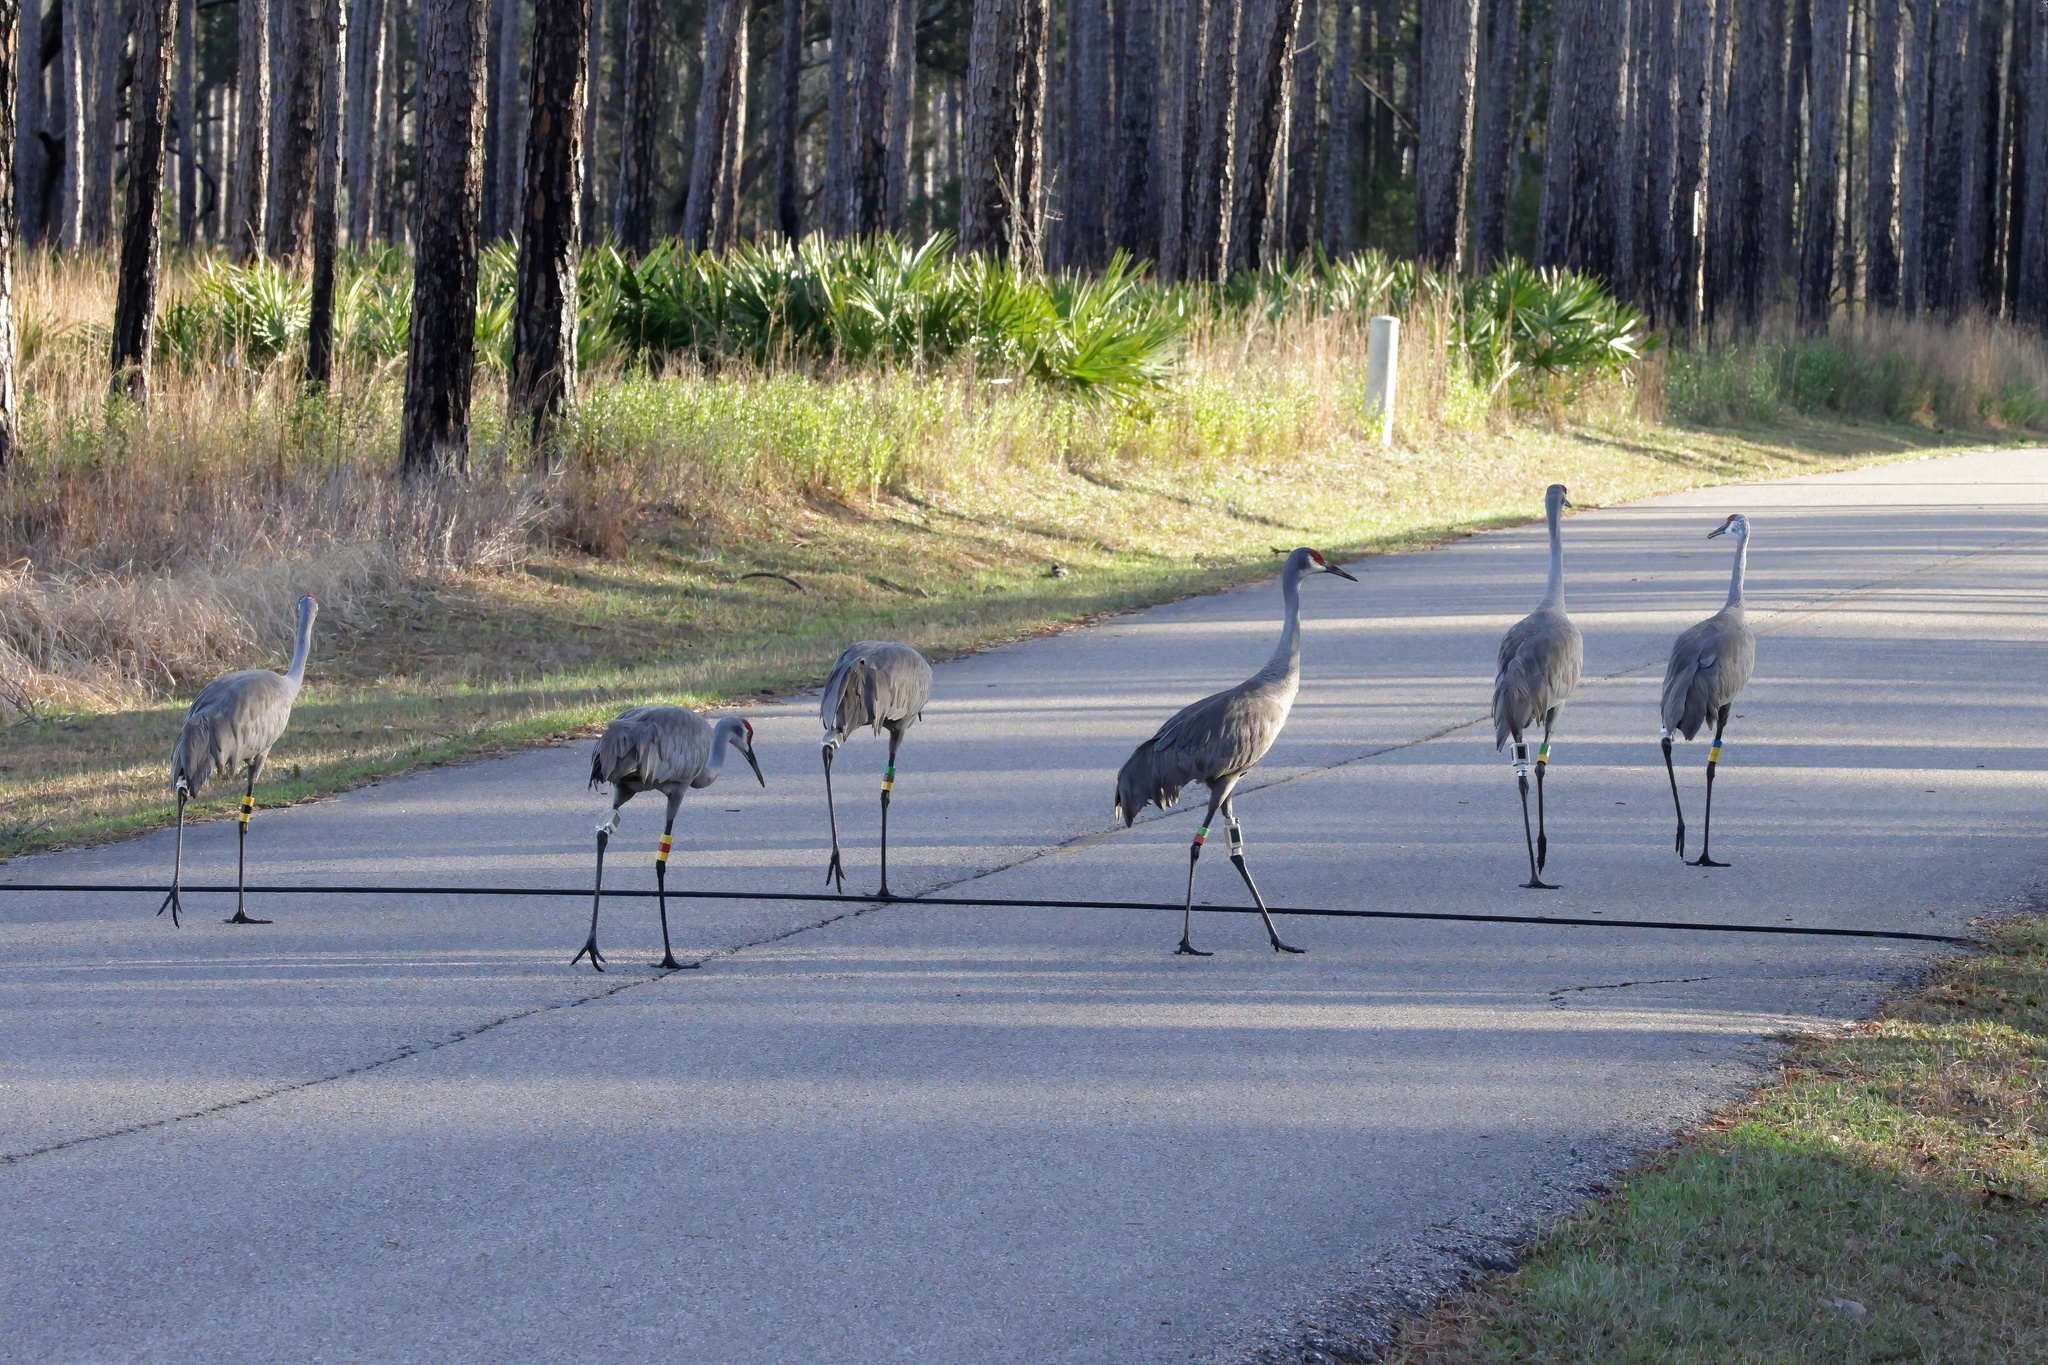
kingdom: Animalia
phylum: Chordata
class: Aves
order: Gruiformes
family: Gruidae
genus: Grus
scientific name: Grus canadensis
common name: Sandhill crane
